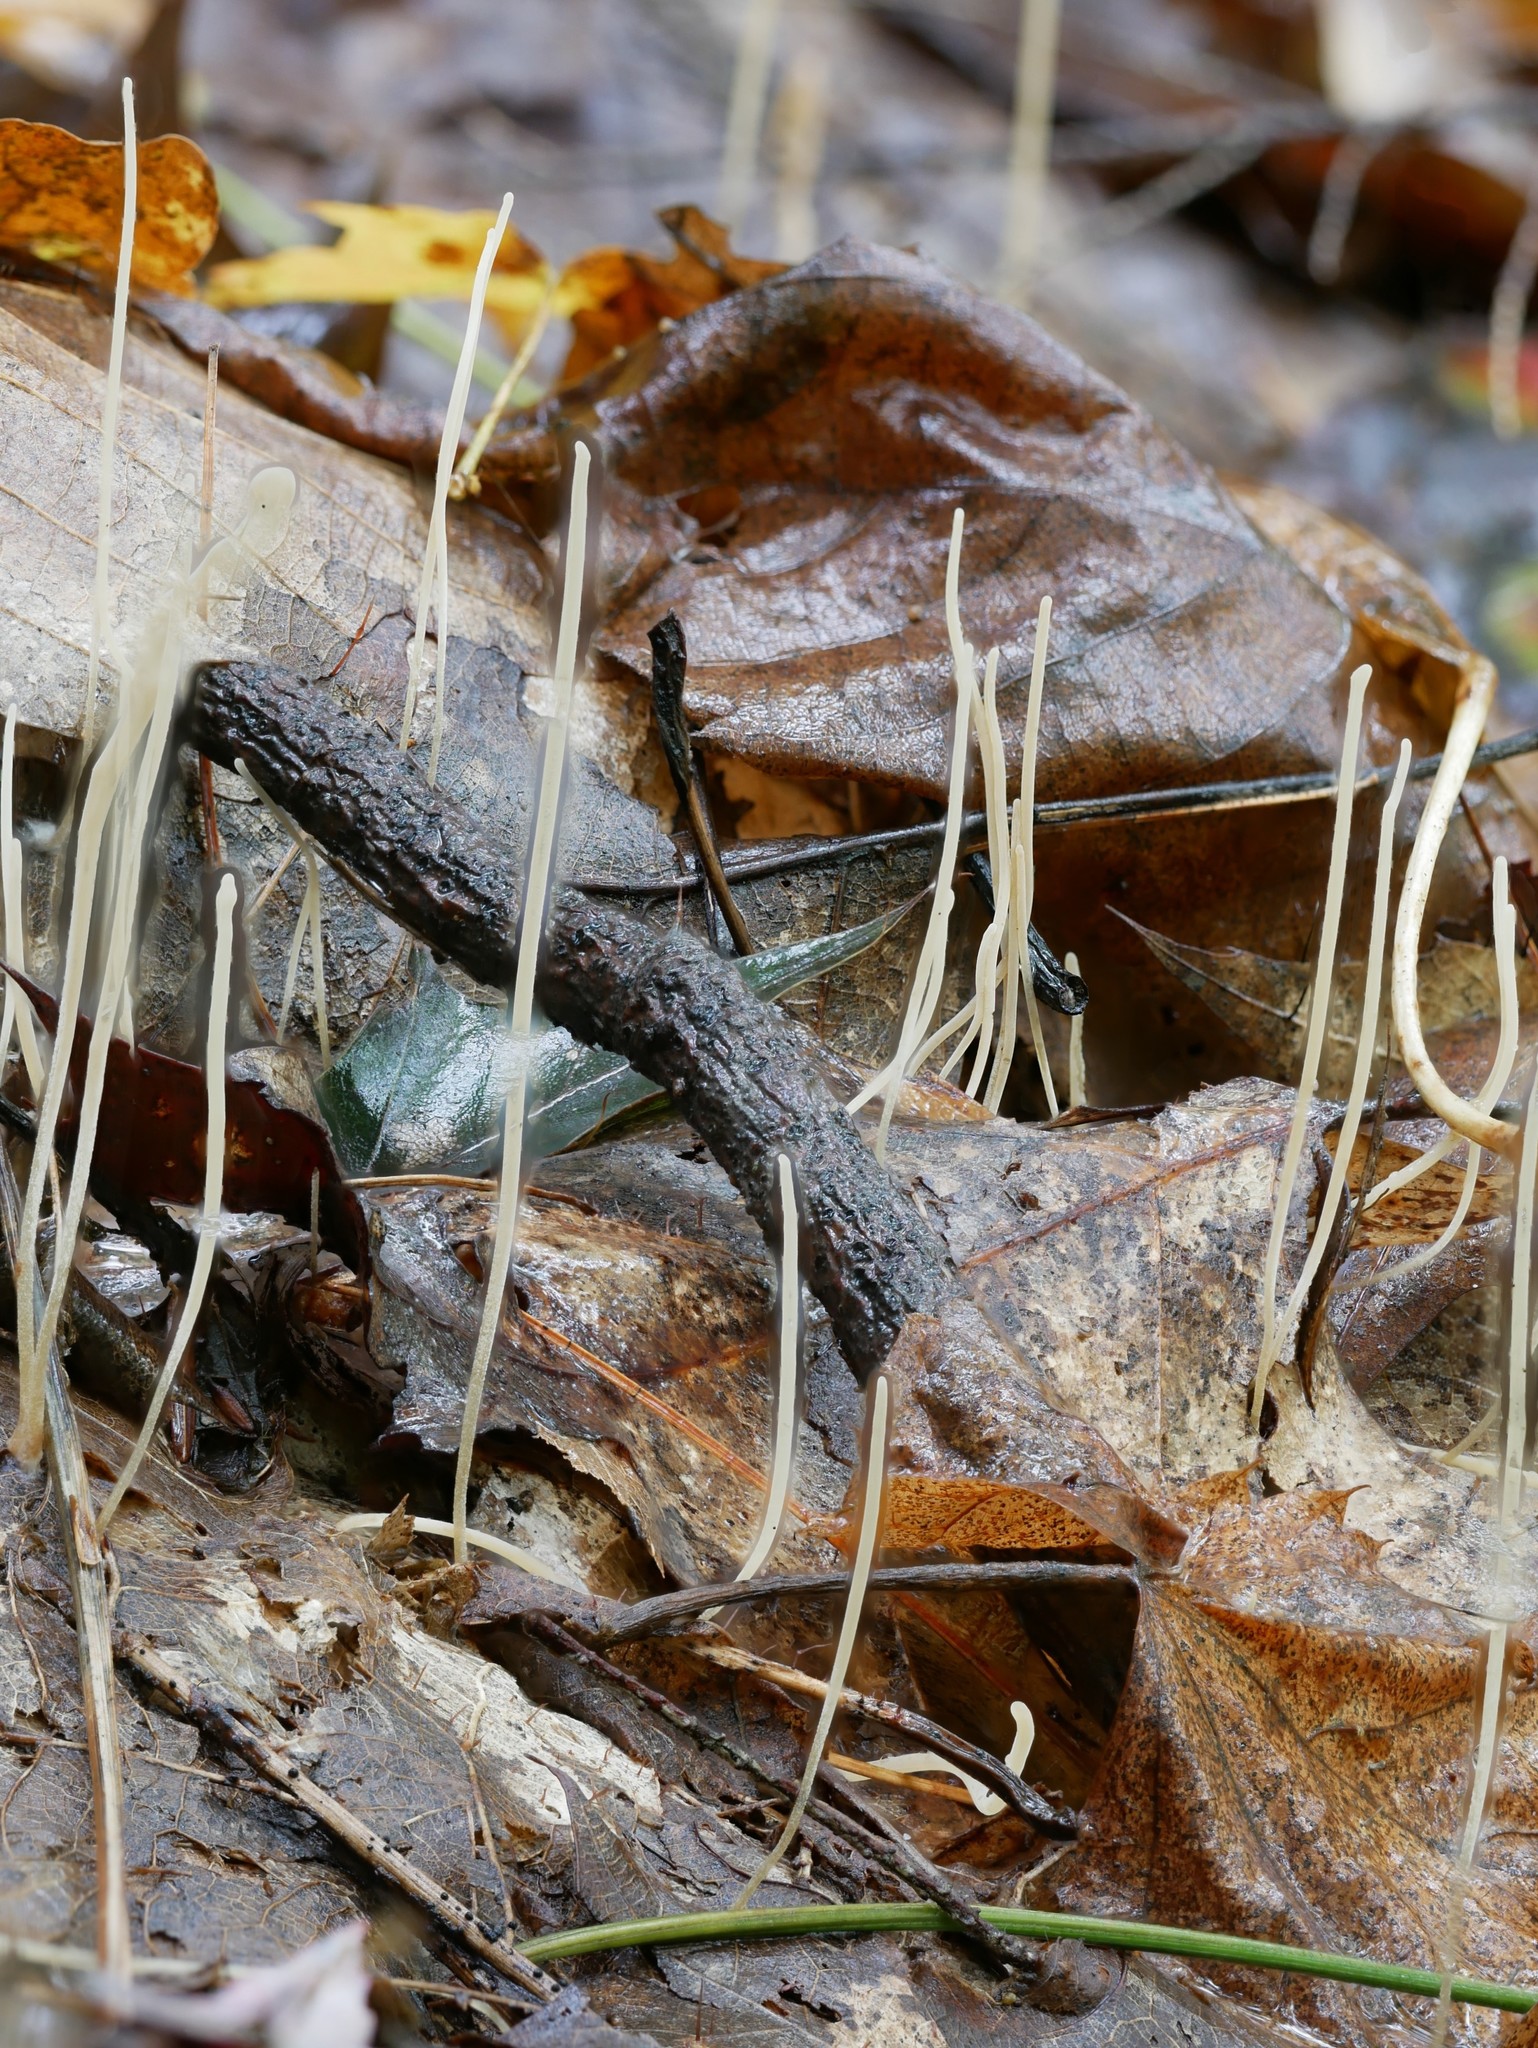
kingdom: Fungi
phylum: Basidiomycota
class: Agaricomycetes
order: Agaricales
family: Typhulaceae
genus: Typhula
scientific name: Typhula juncea
